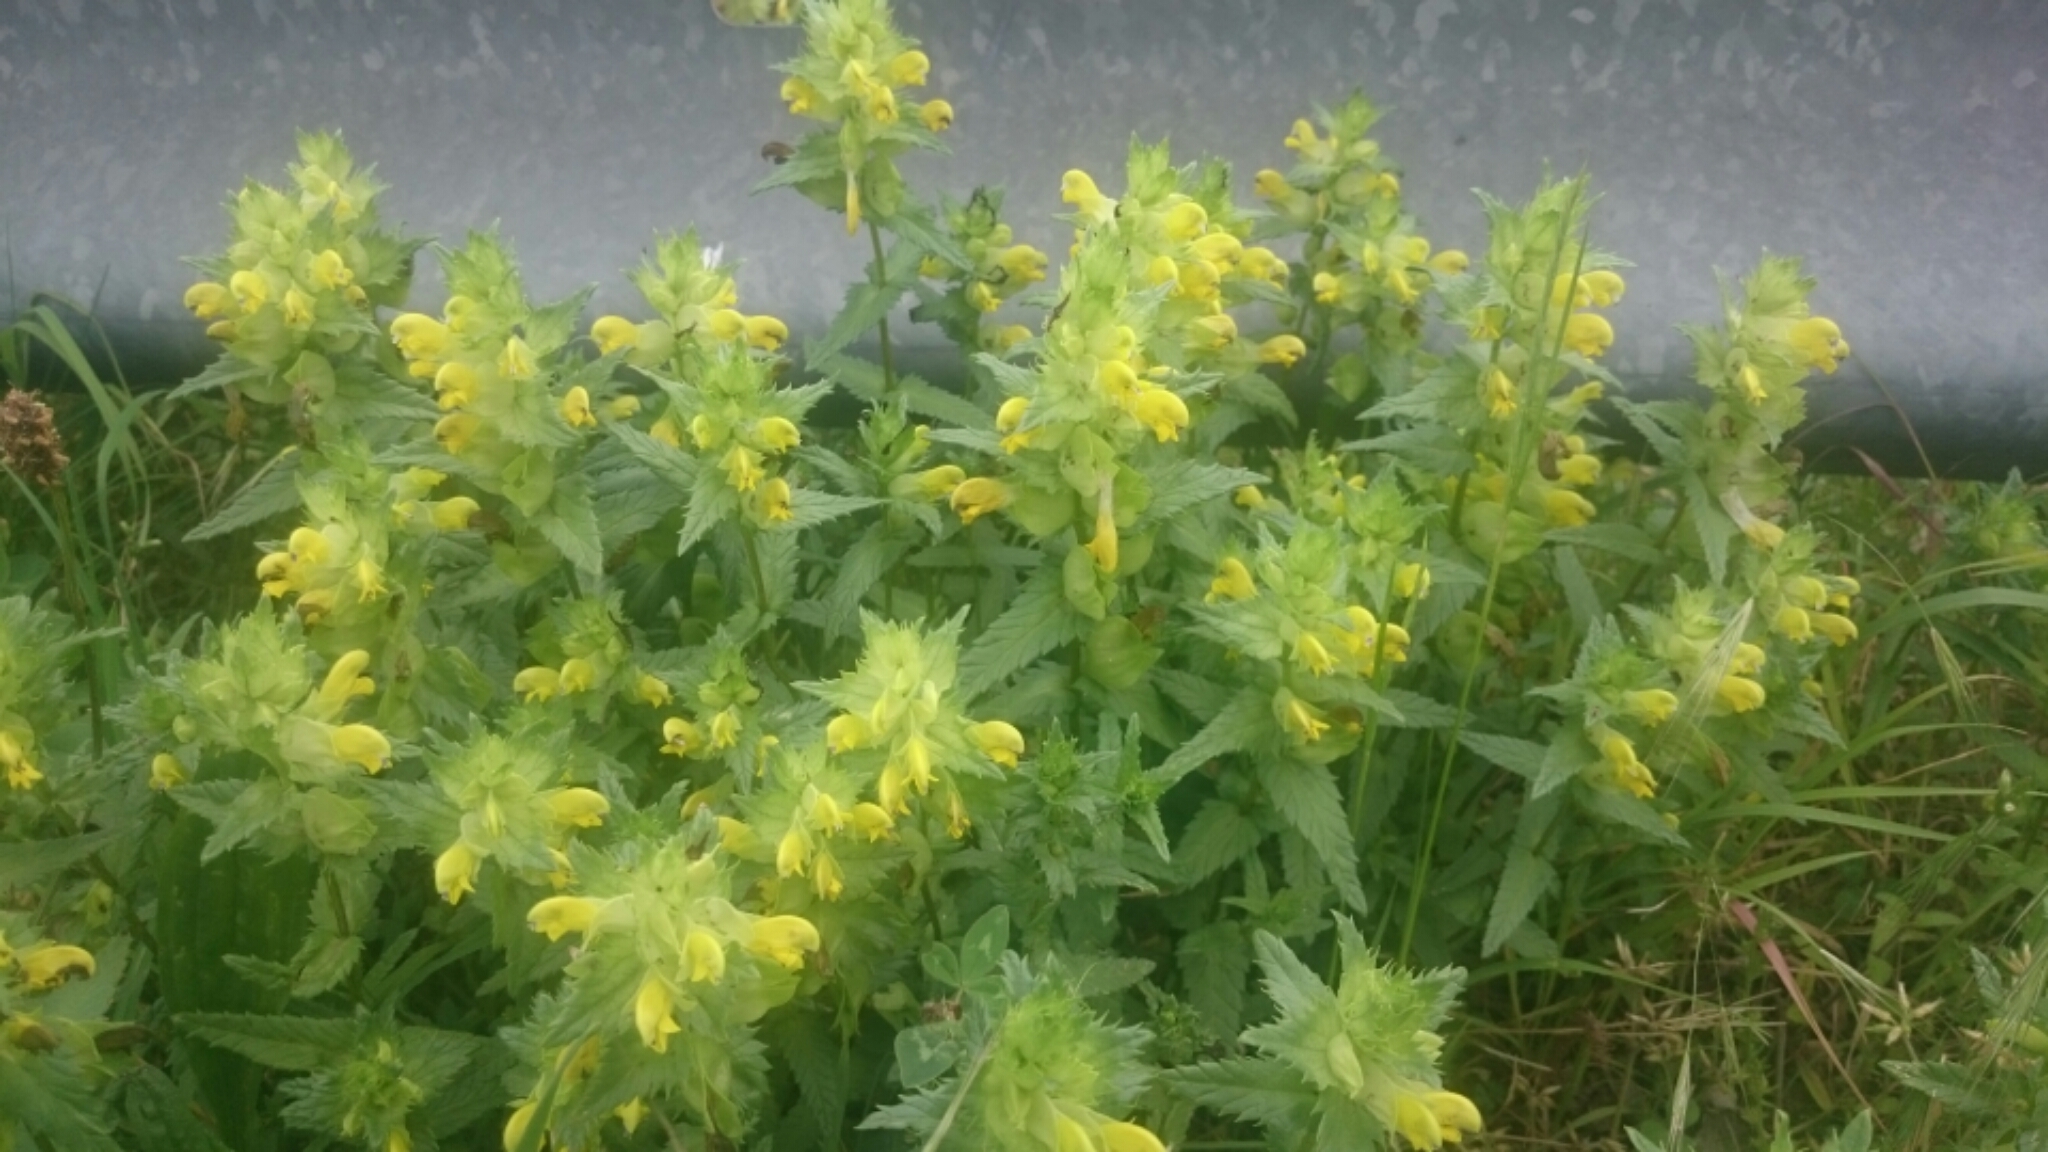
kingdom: Plantae
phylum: Tracheophyta
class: Magnoliopsida
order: Lamiales
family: Orobanchaceae
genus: Rhinanthus
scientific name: Rhinanthus serotinus
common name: Late-flowering yellow rattle
